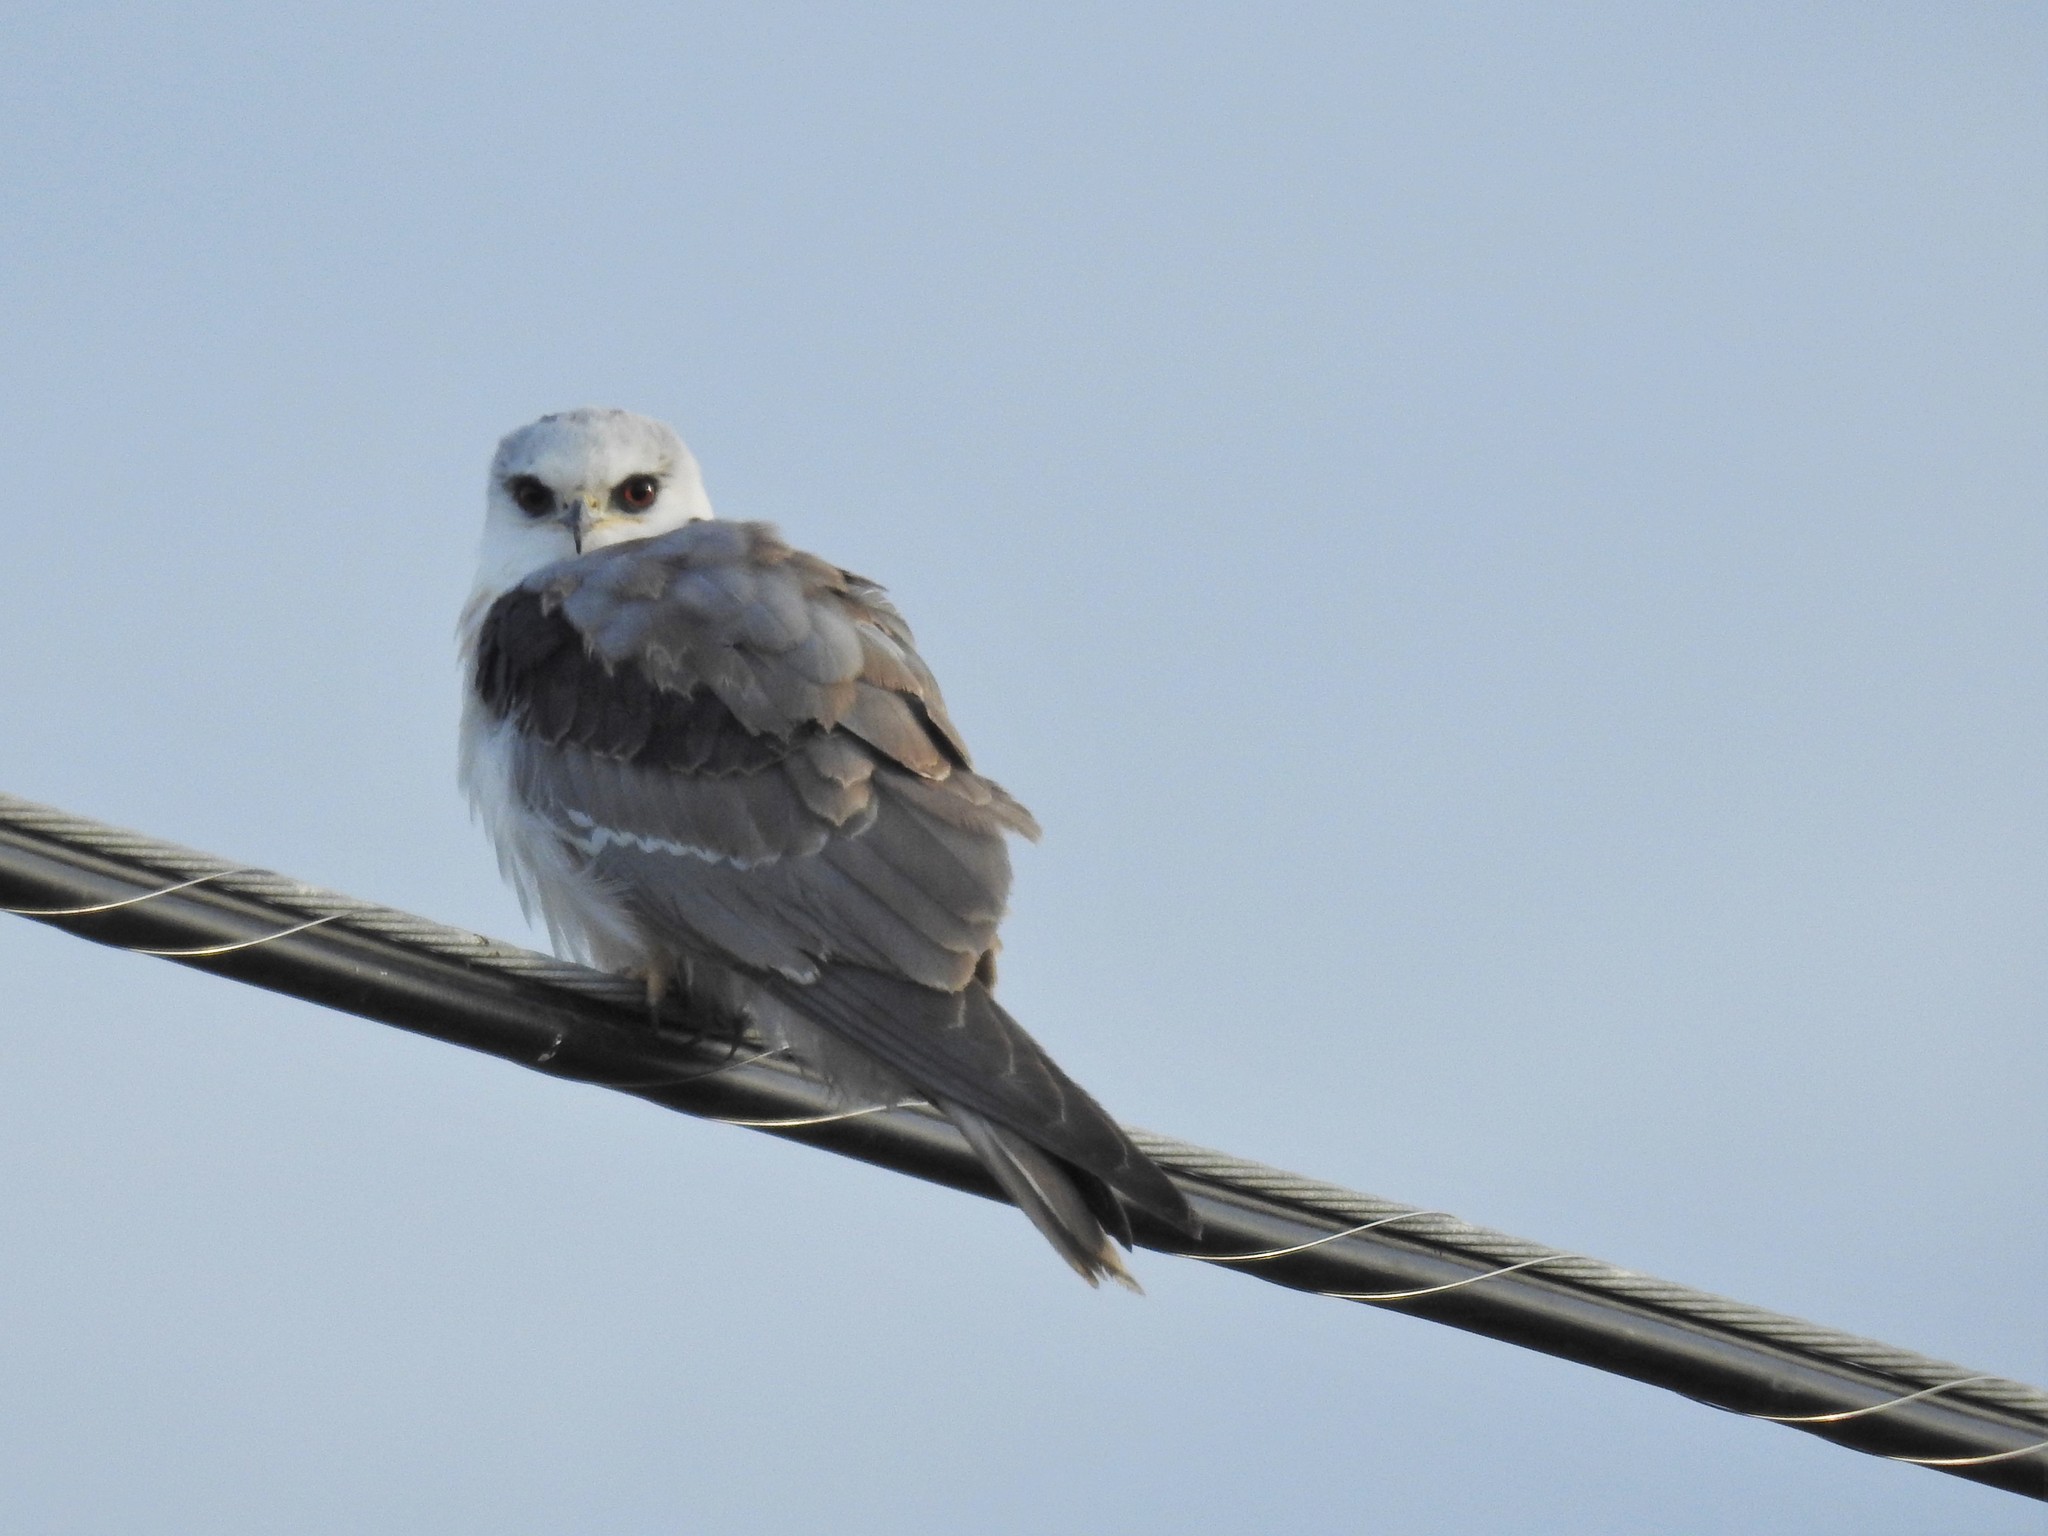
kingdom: Animalia
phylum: Chordata
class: Aves
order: Accipitriformes
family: Accipitridae
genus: Elanus
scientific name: Elanus leucurus
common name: White-tailed kite
